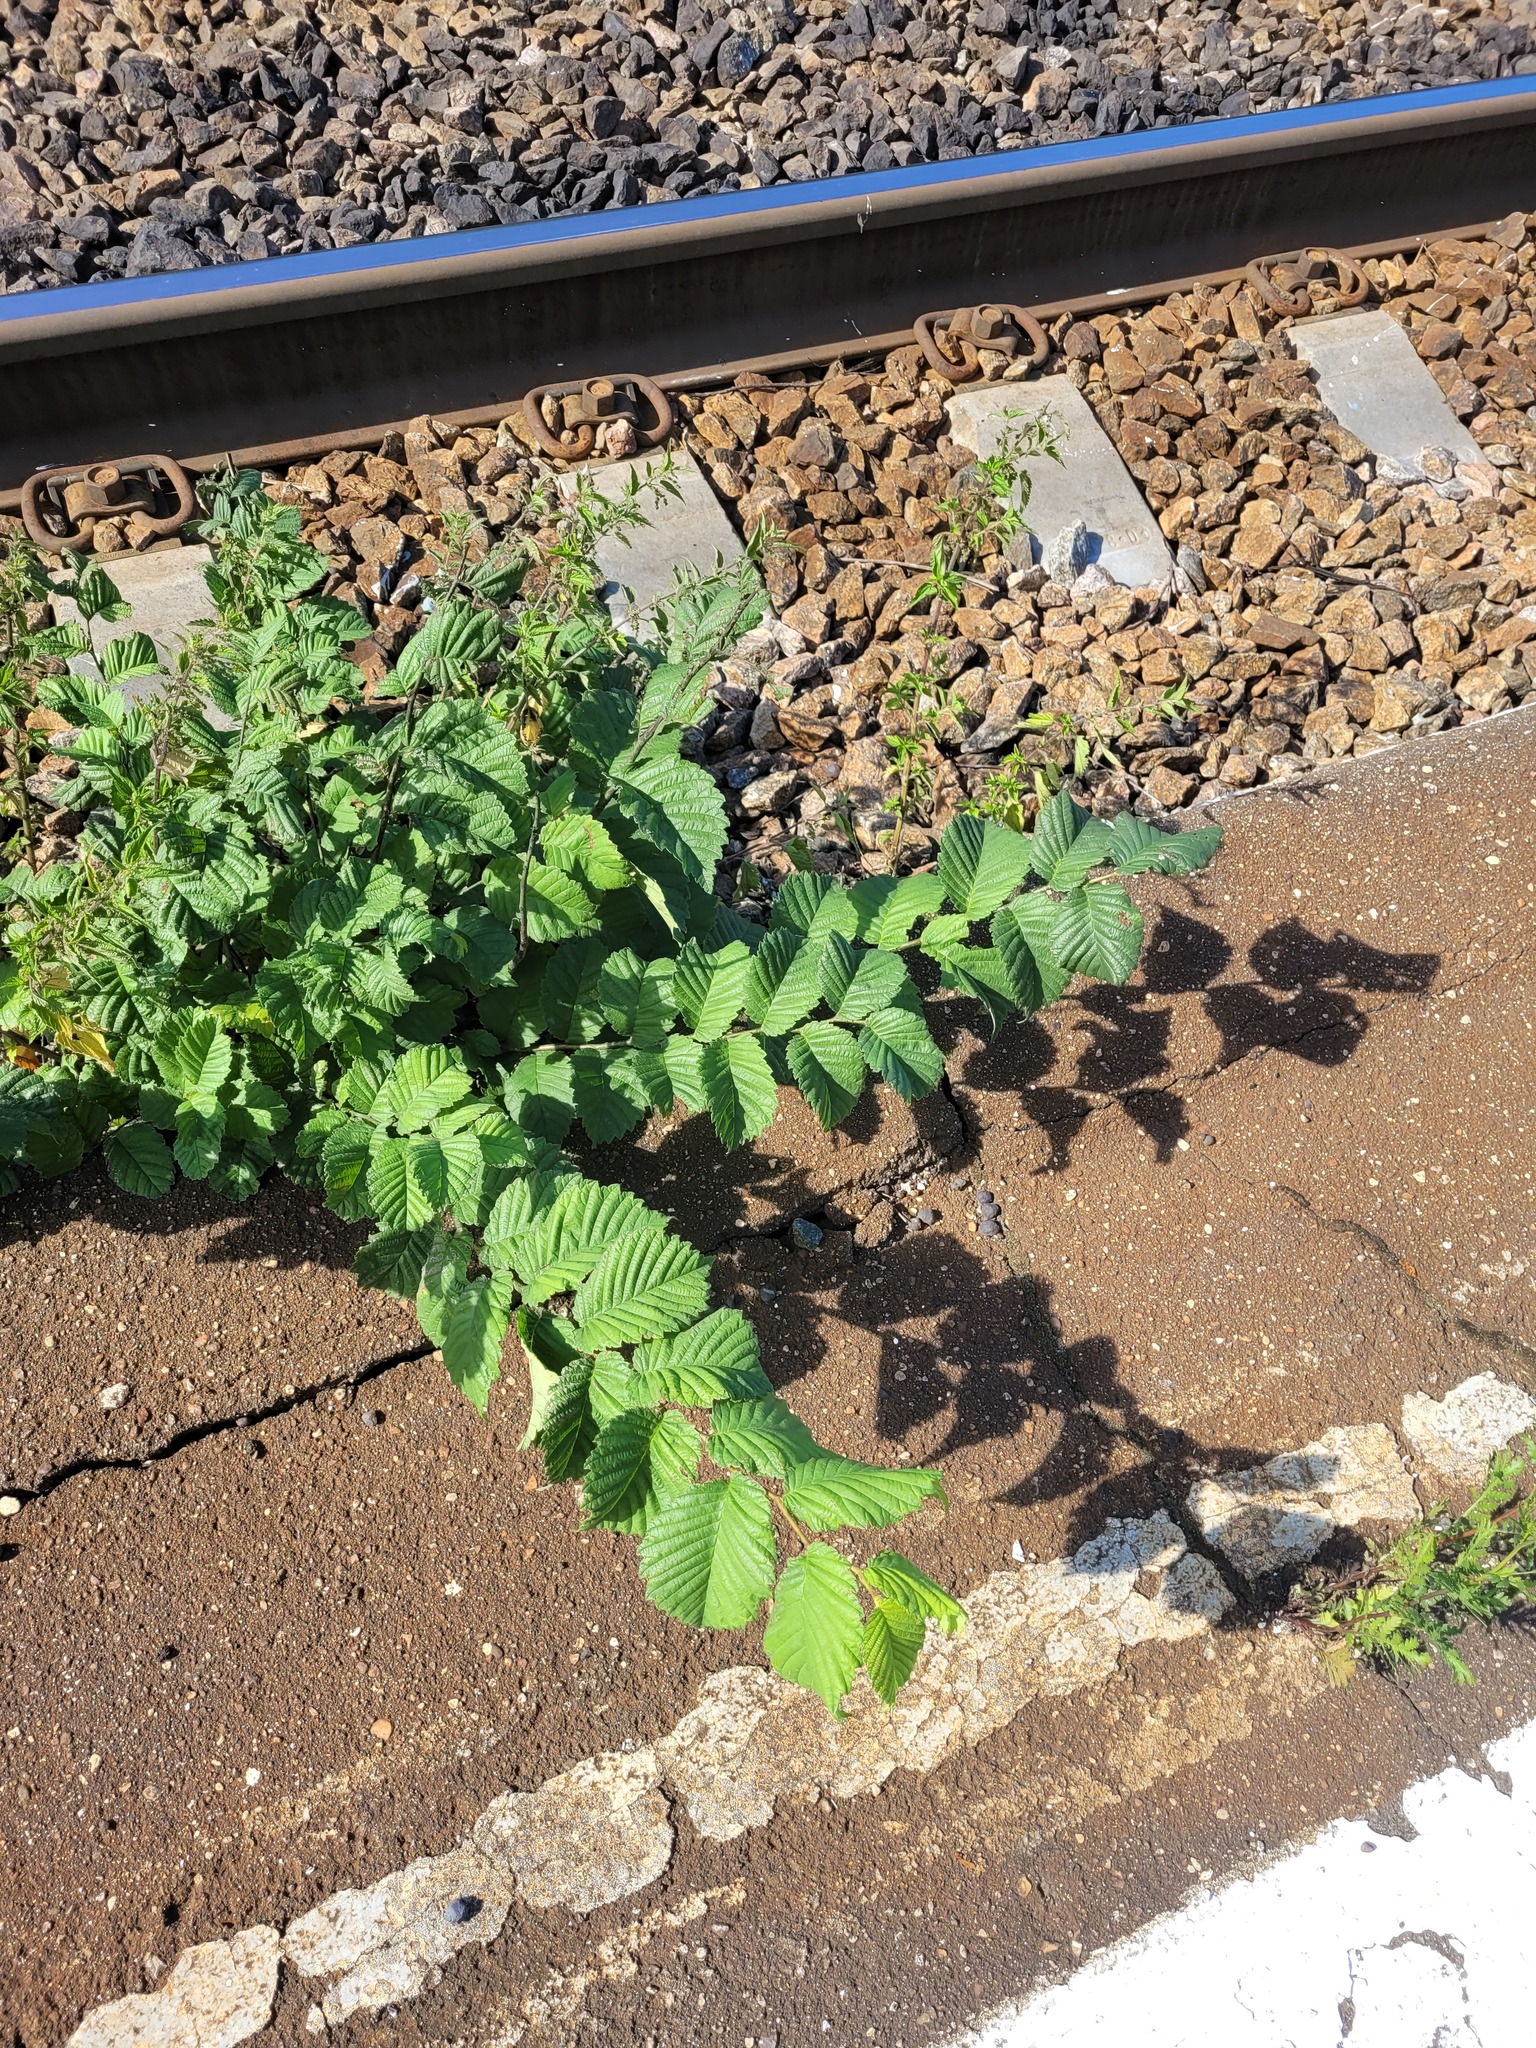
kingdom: Plantae
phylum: Tracheophyta
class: Magnoliopsida
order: Rosales
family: Ulmaceae
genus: Ulmus
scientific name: Ulmus laevis
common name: European white-elm
